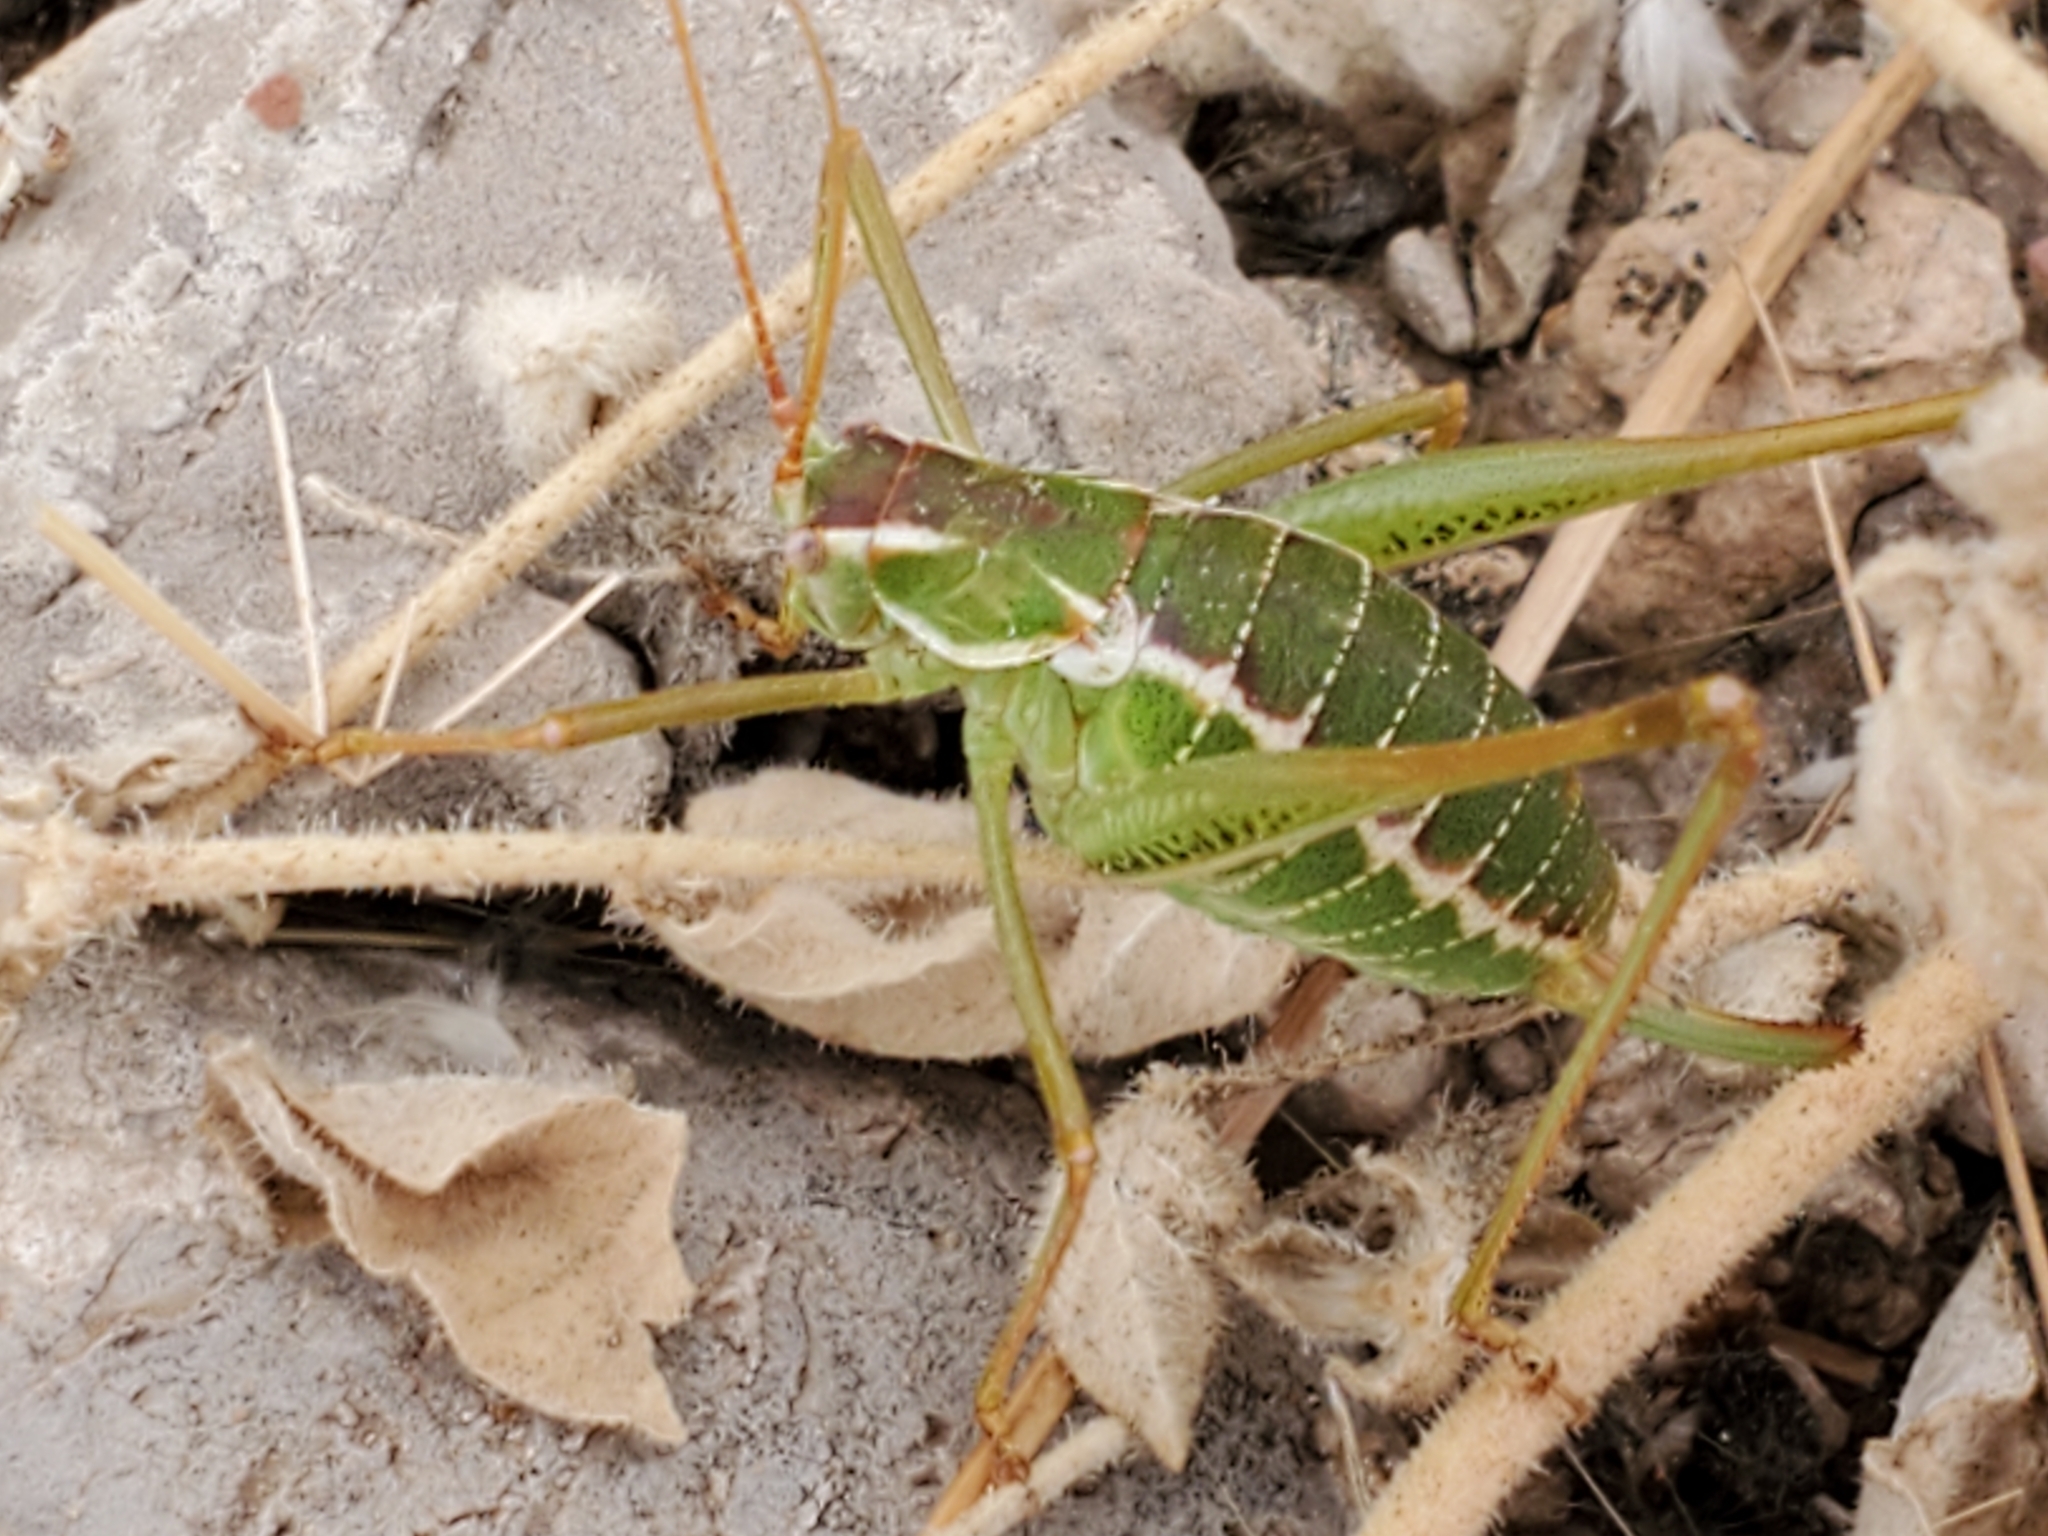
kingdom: Animalia
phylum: Arthropoda
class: Insecta
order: Orthoptera
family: Tettigoniidae
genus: Obolopteryx
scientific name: Obolopteryx brevihastata
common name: Common short-winged katydid
